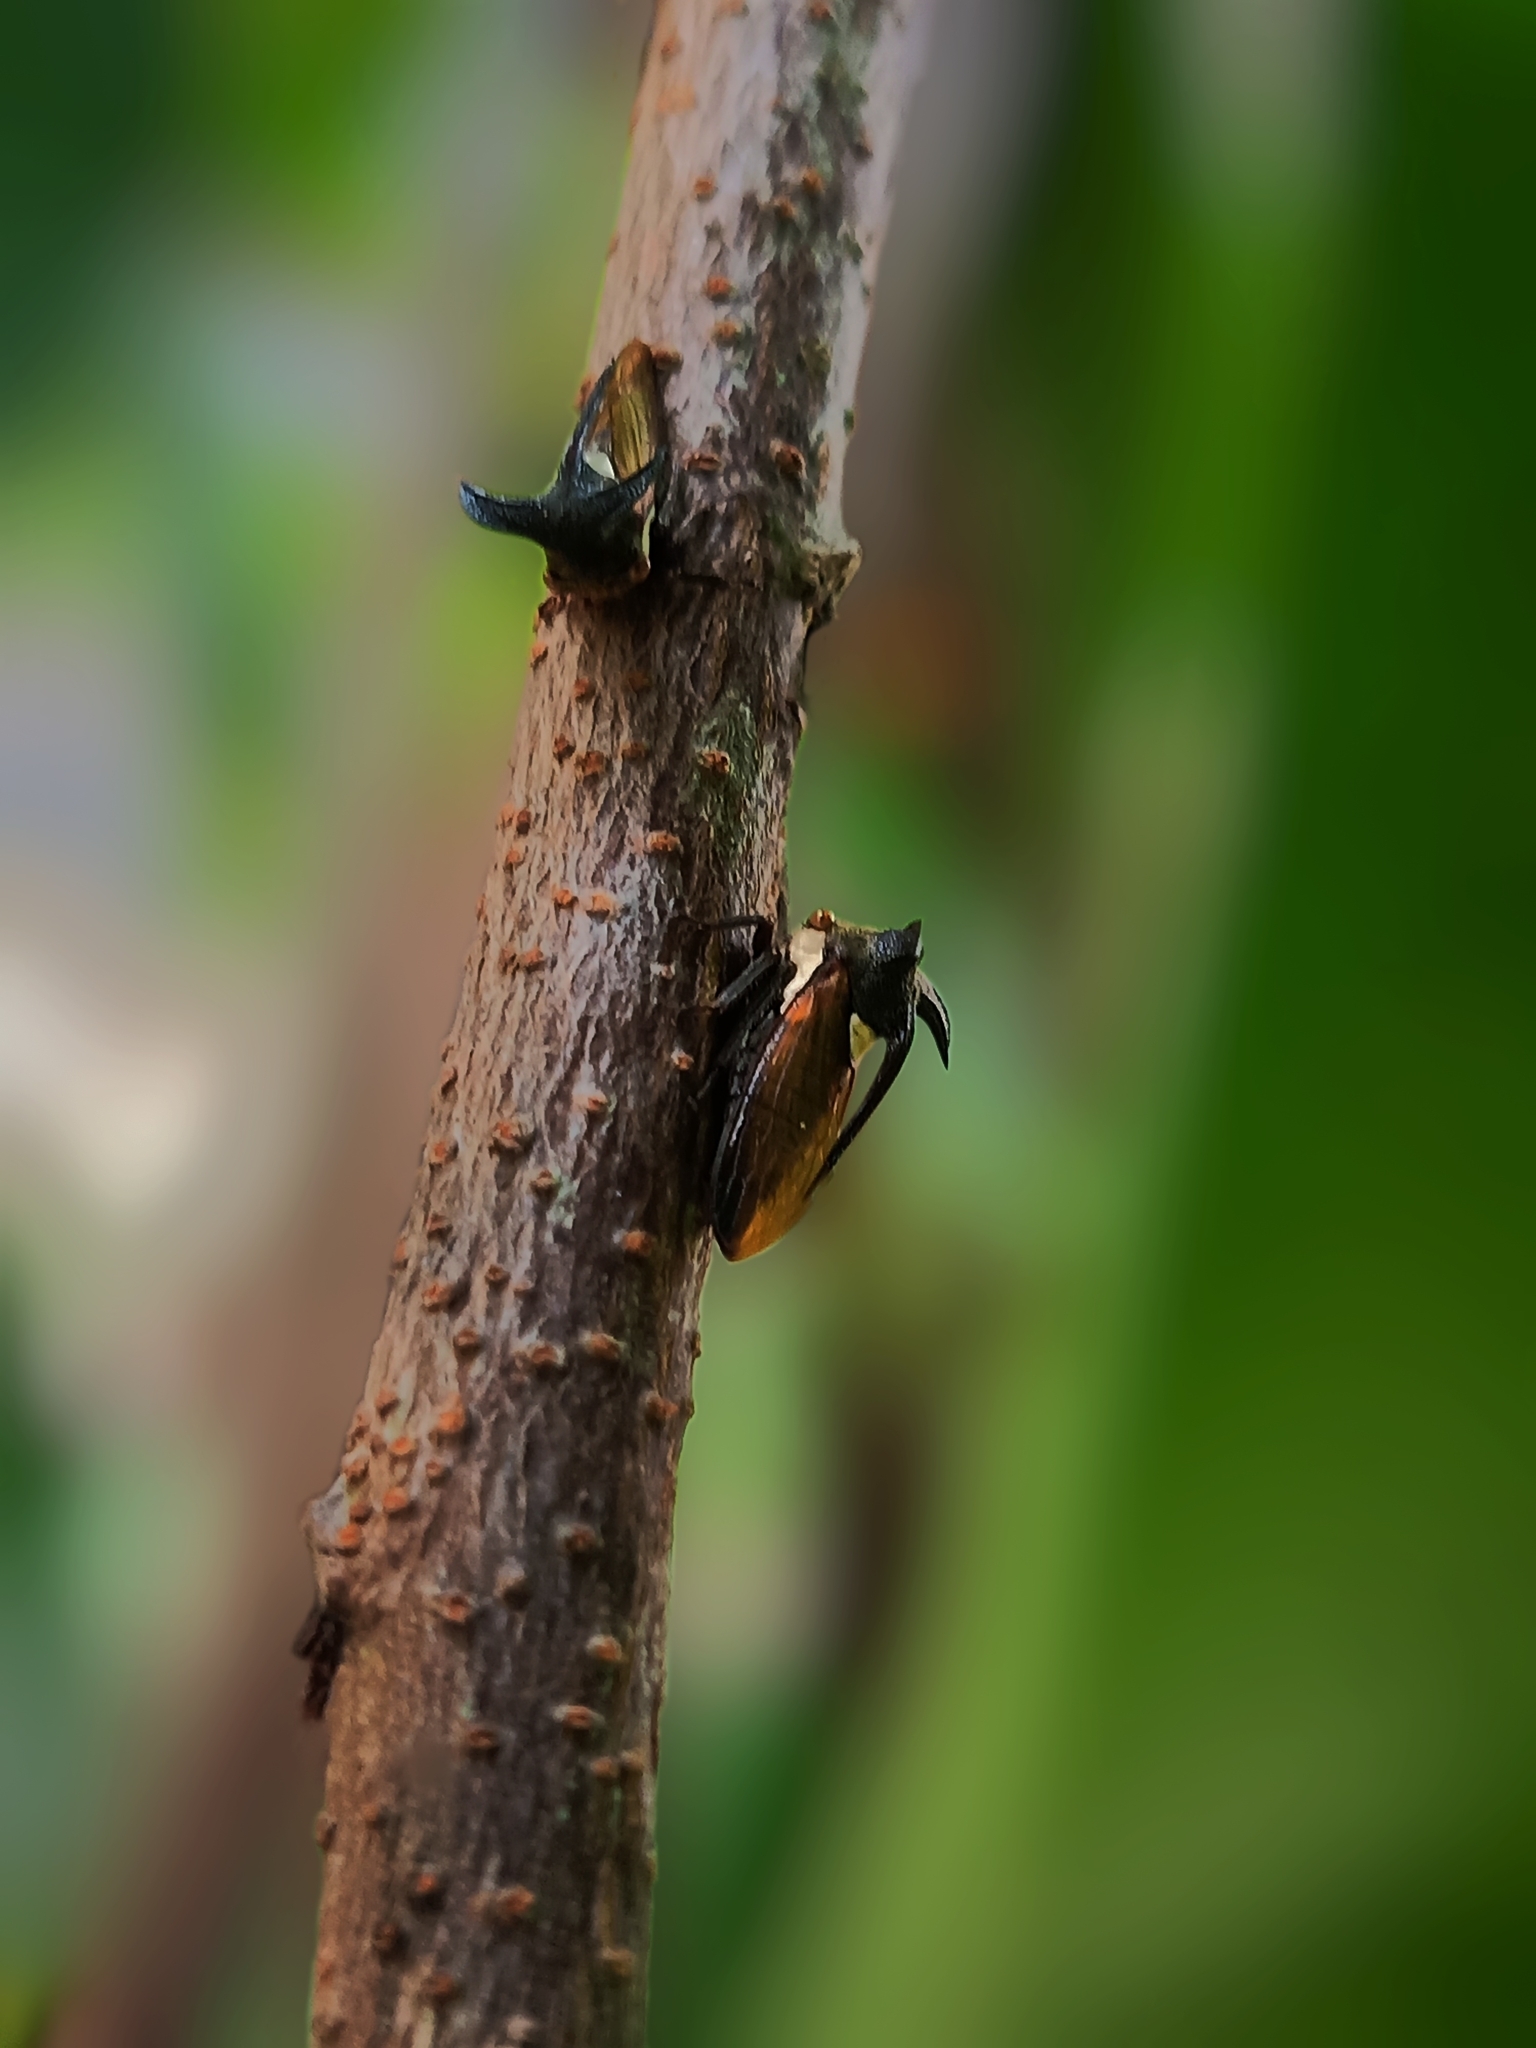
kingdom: Animalia
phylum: Arthropoda
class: Insecta
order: Hemiptera
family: Membracidae
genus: Leptocentrus
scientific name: Leptocentrus taurus
